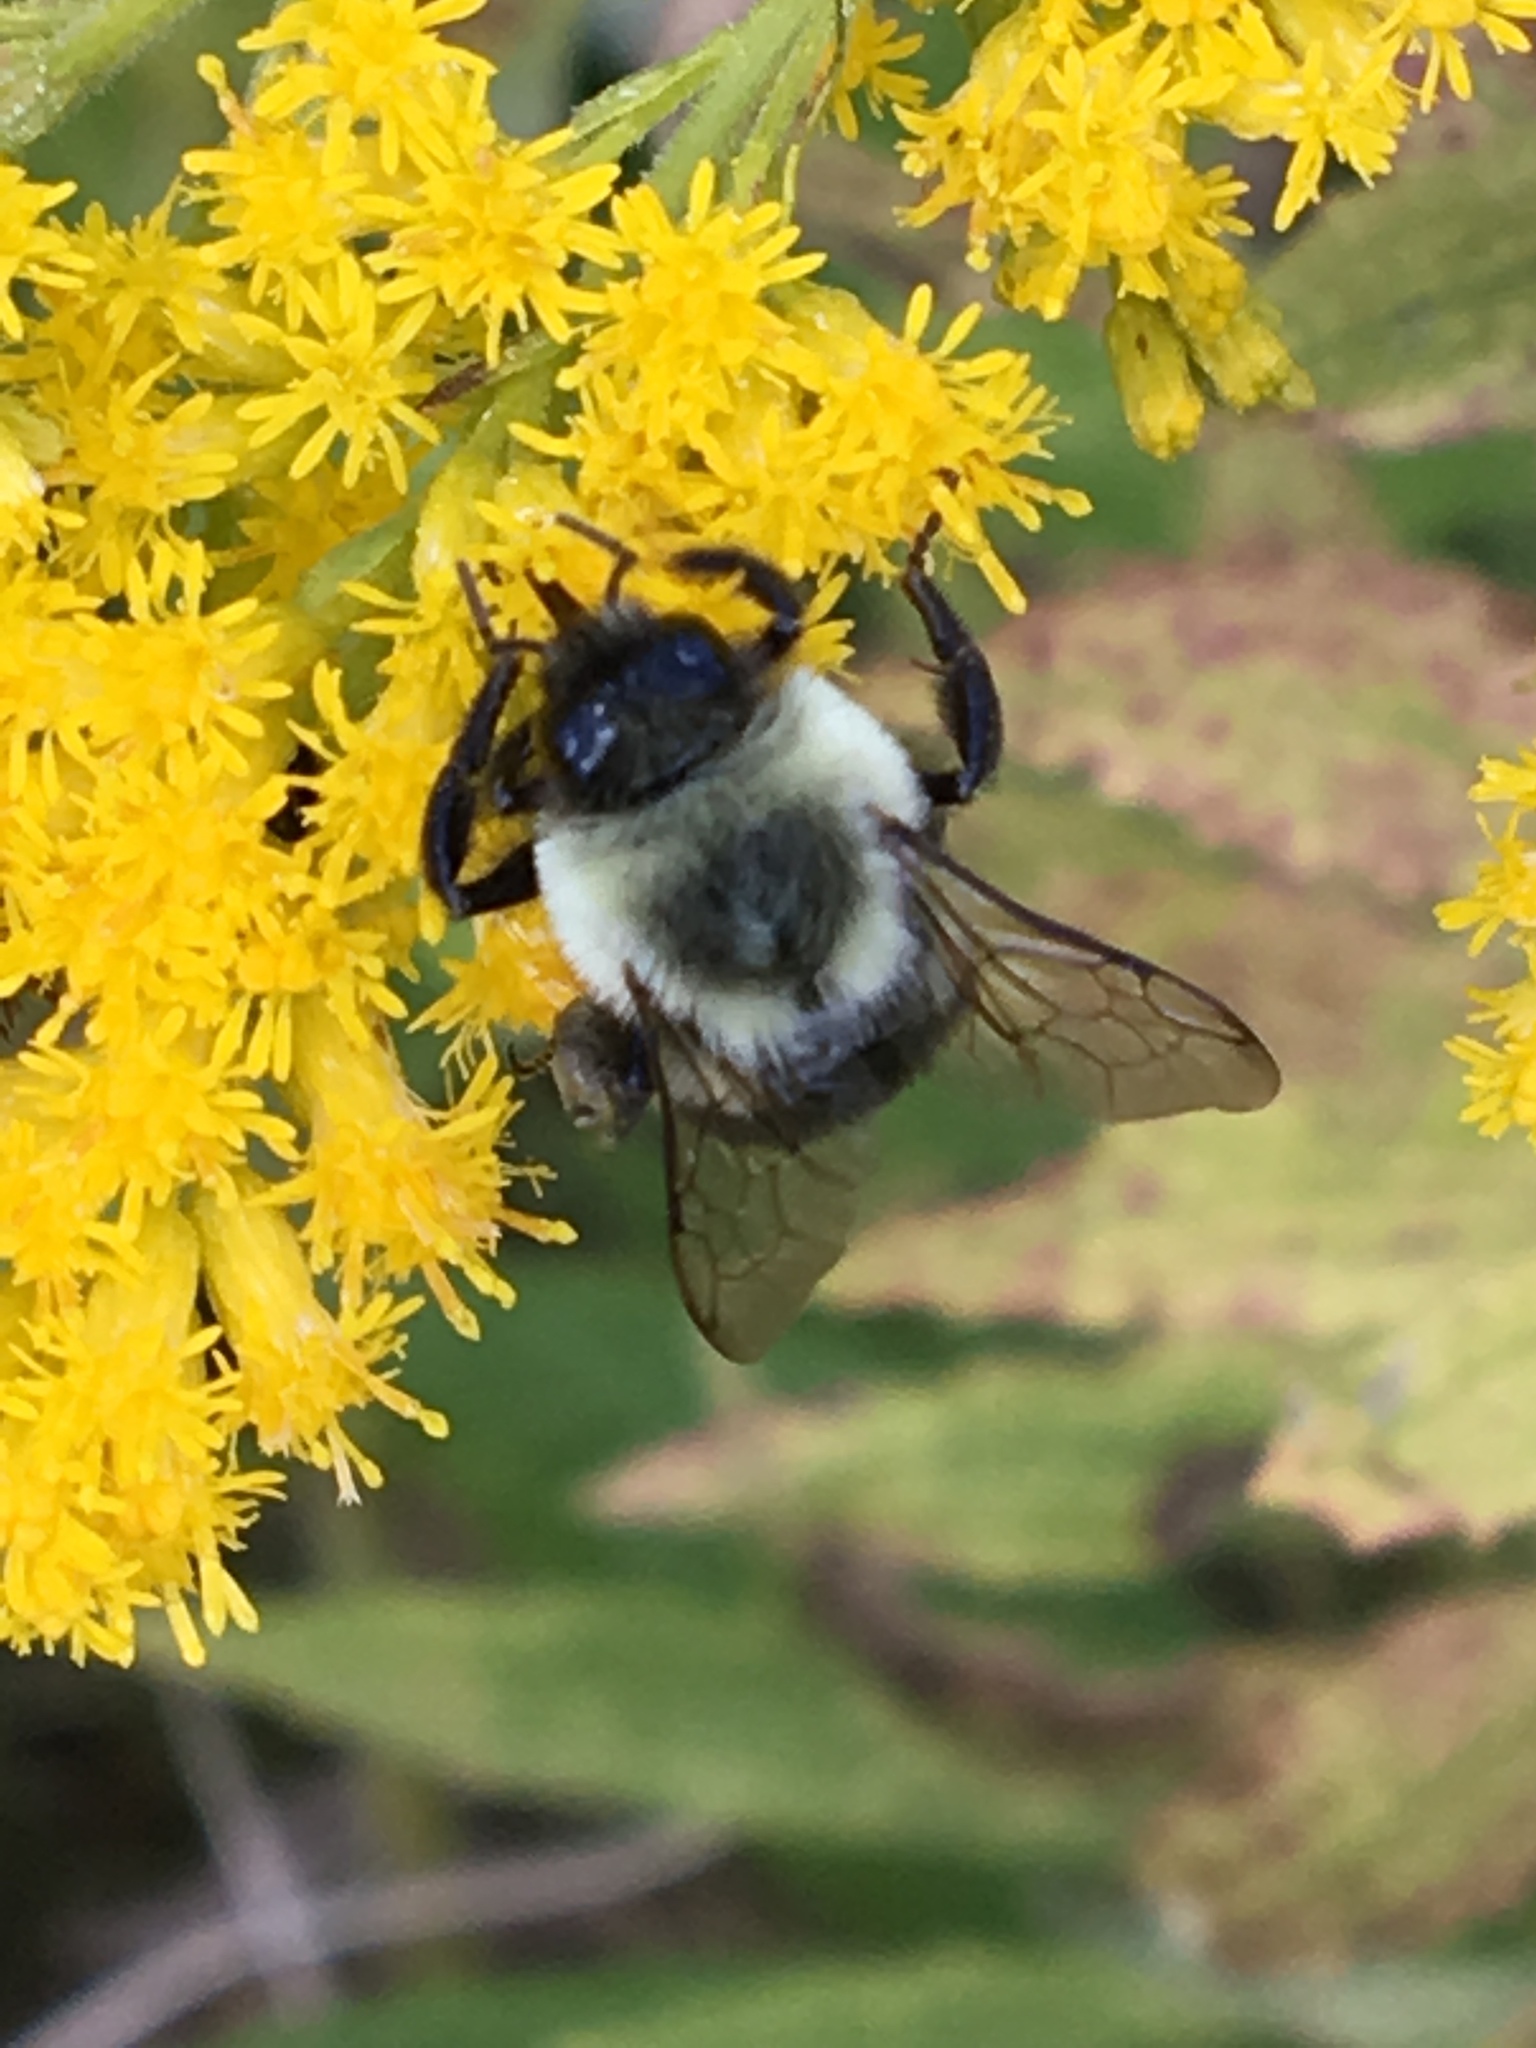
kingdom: Animalia
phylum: Arthropoda
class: Insecta
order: Hymenoptera
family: Apidae
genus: Bombus
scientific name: Bombus impatiens
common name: Common eastern bumble bee
